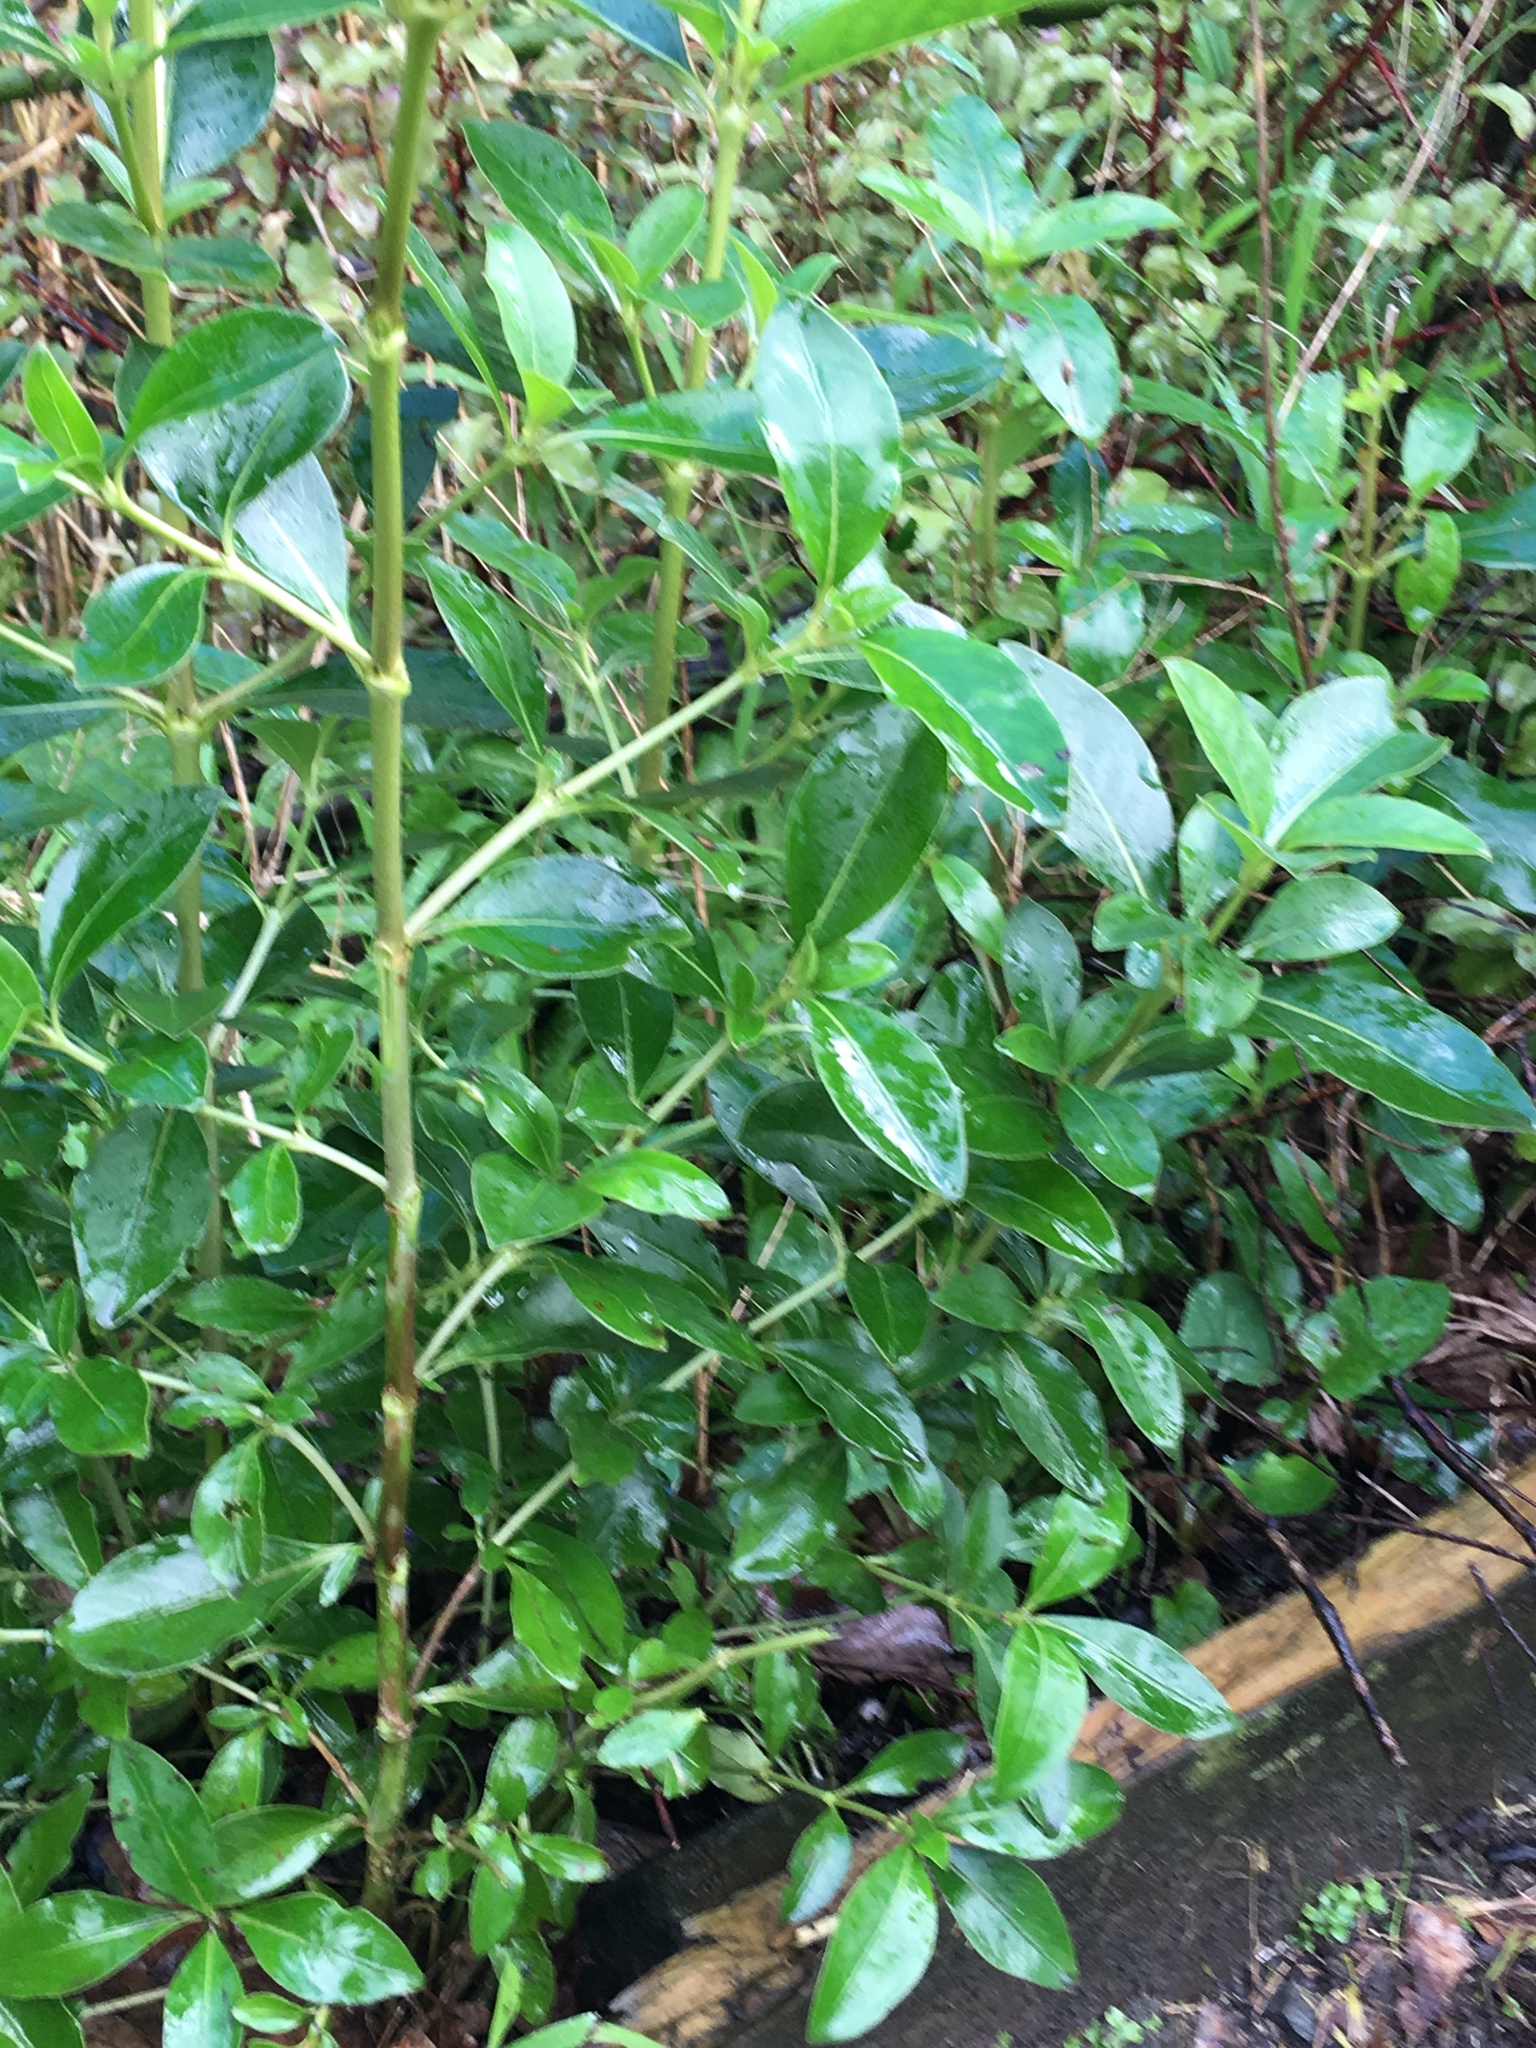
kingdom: Plantae
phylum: Tracheophyta
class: Magnoliopsida
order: Gentianales
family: Rubiaceae
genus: Coprosma
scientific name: Coprosma robusta
